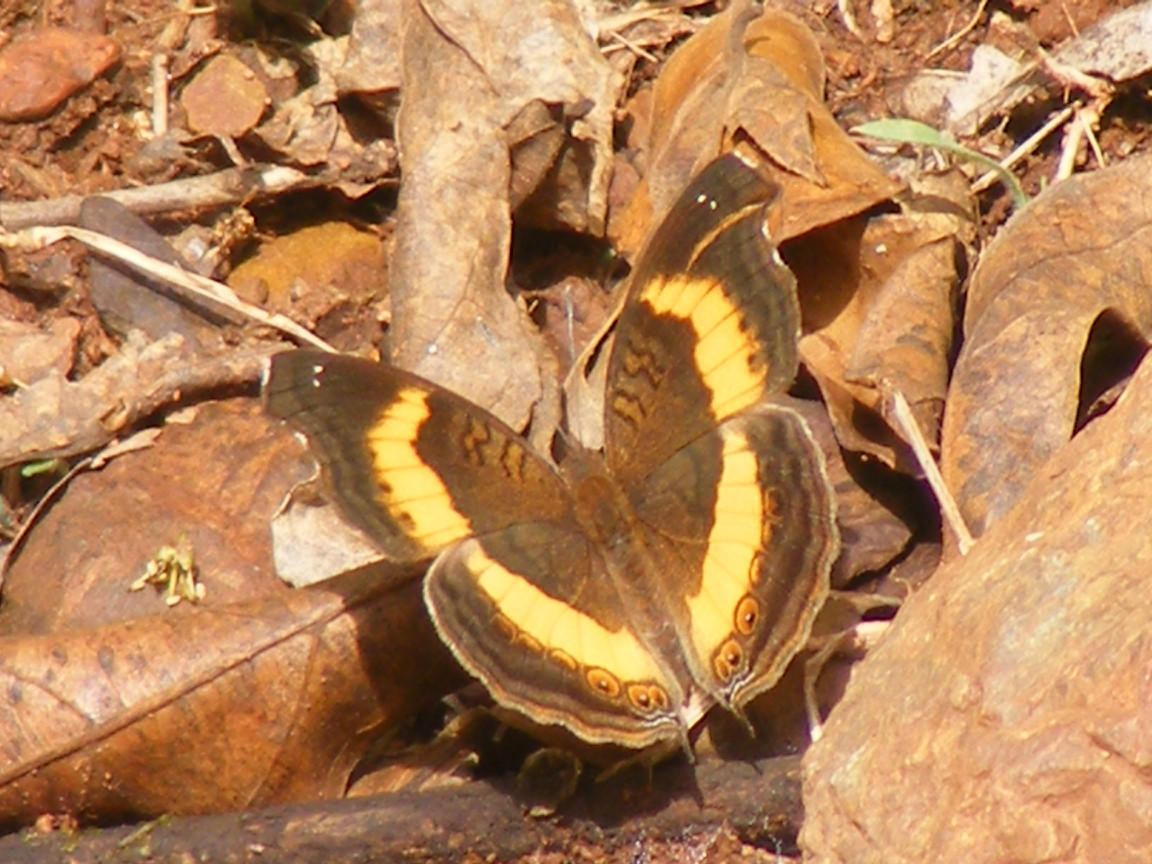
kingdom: Animalia
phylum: Arthropoda
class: Insecta
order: Lepidoptera
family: Nymphalidae
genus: Junonia
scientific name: Junonia terea
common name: Soldier pansy
